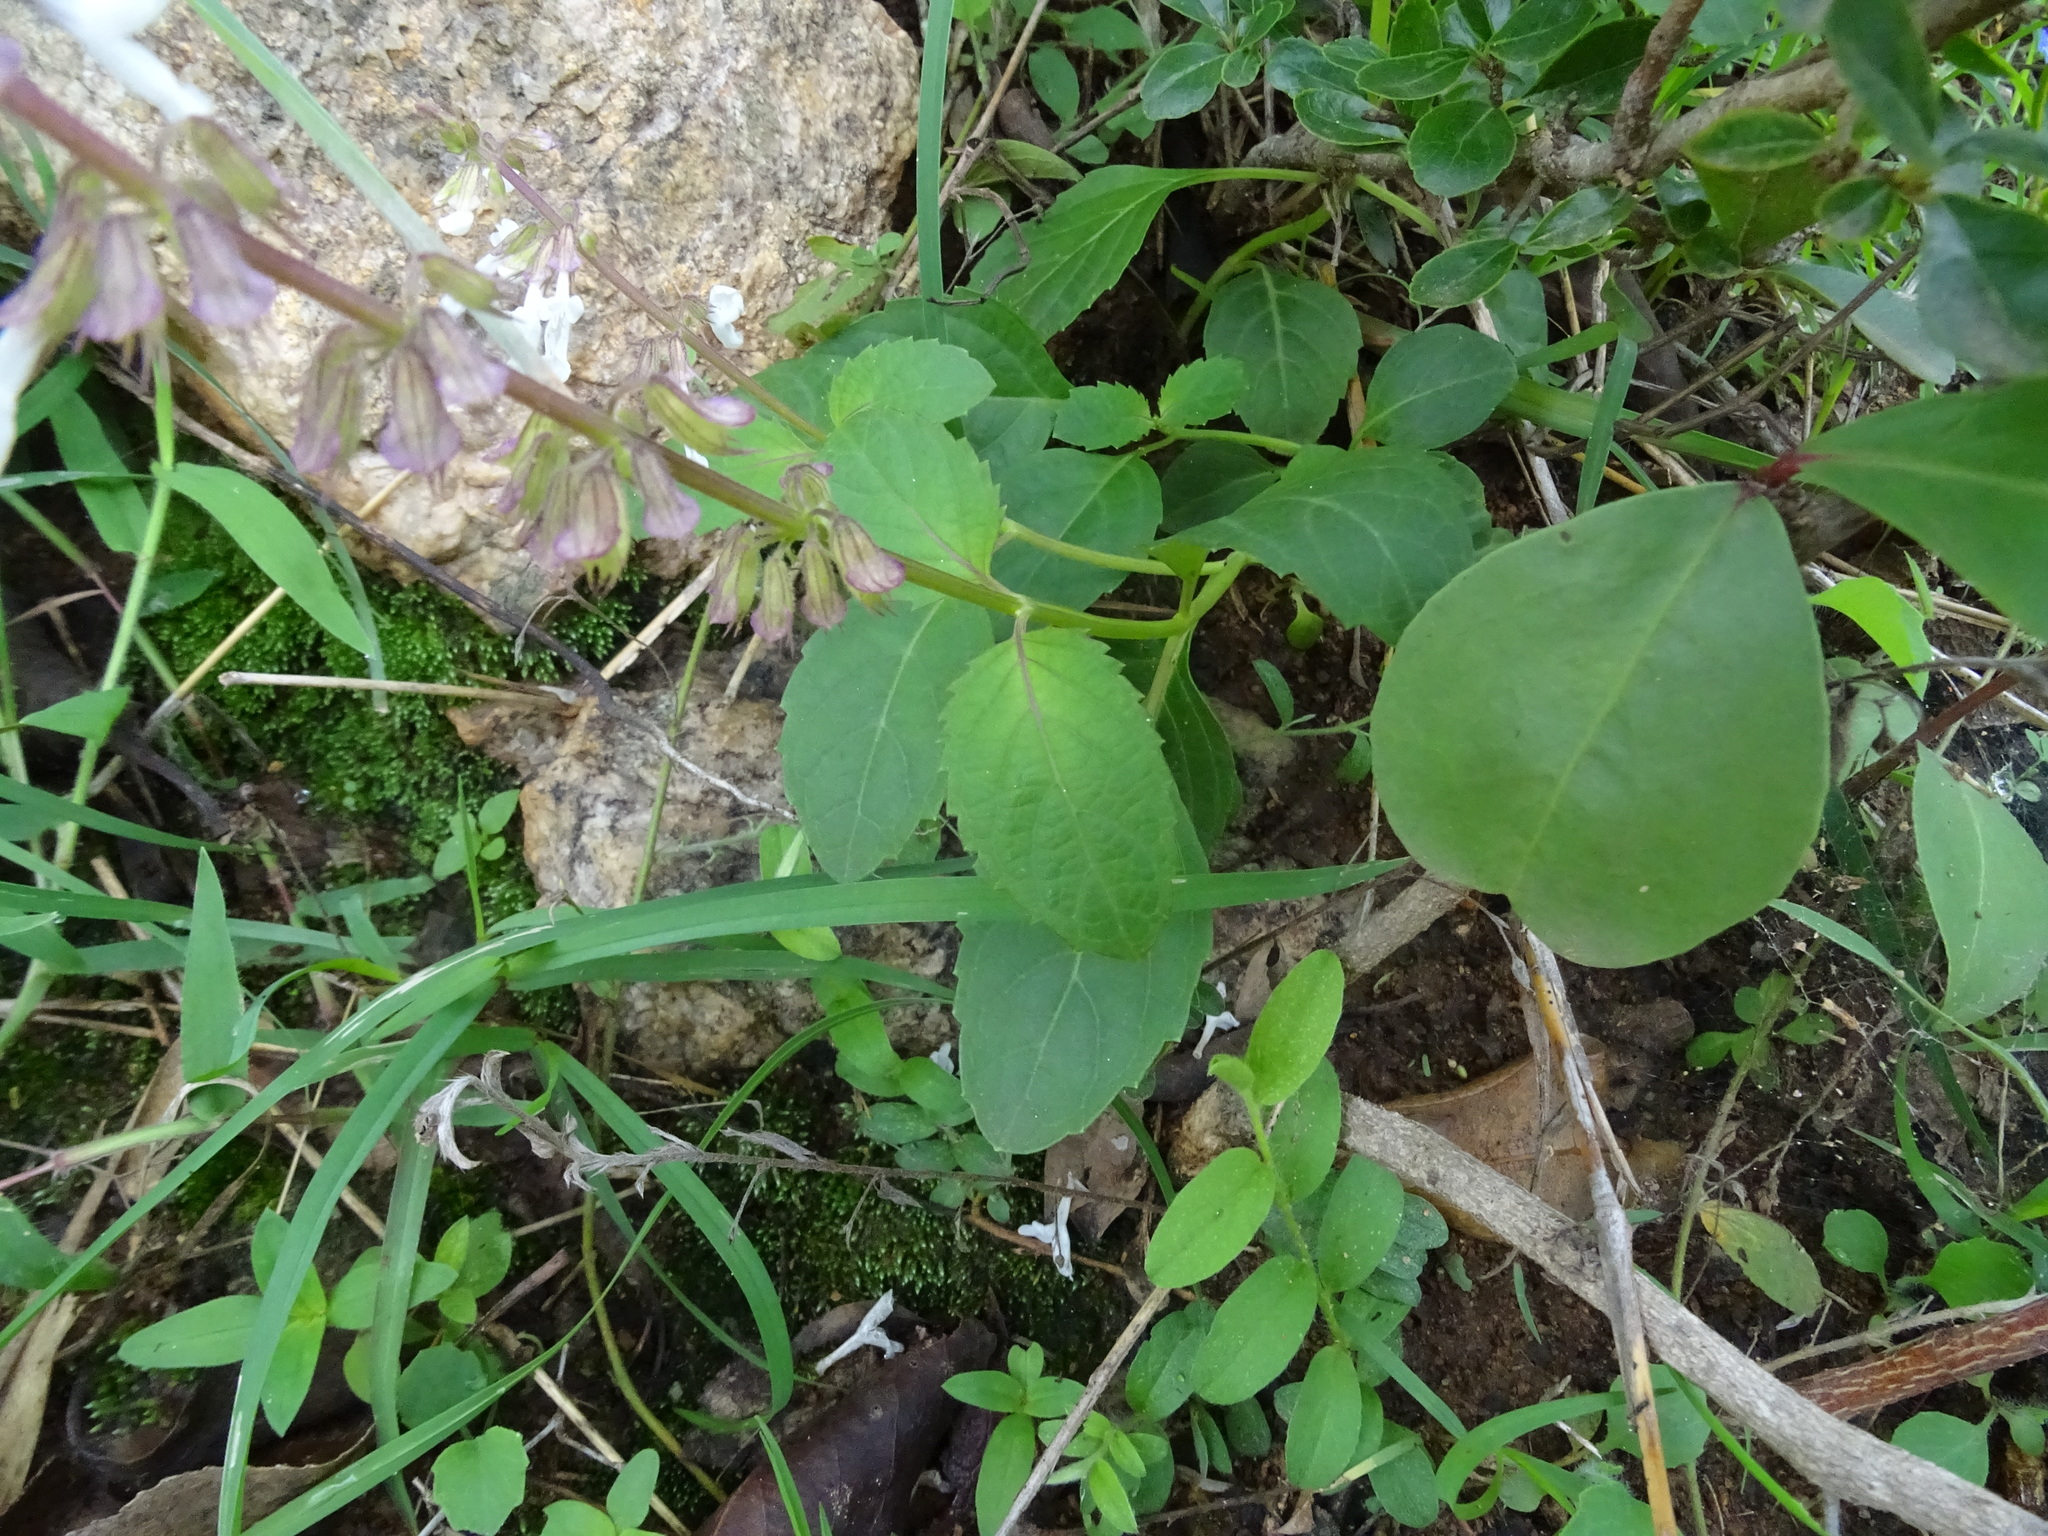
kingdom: Plantae
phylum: Tracheophyta
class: Magnoliopsida
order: Lamiales
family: Lamiaceae
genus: Orthosiphon
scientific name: Orthosiphon thymiflorus
